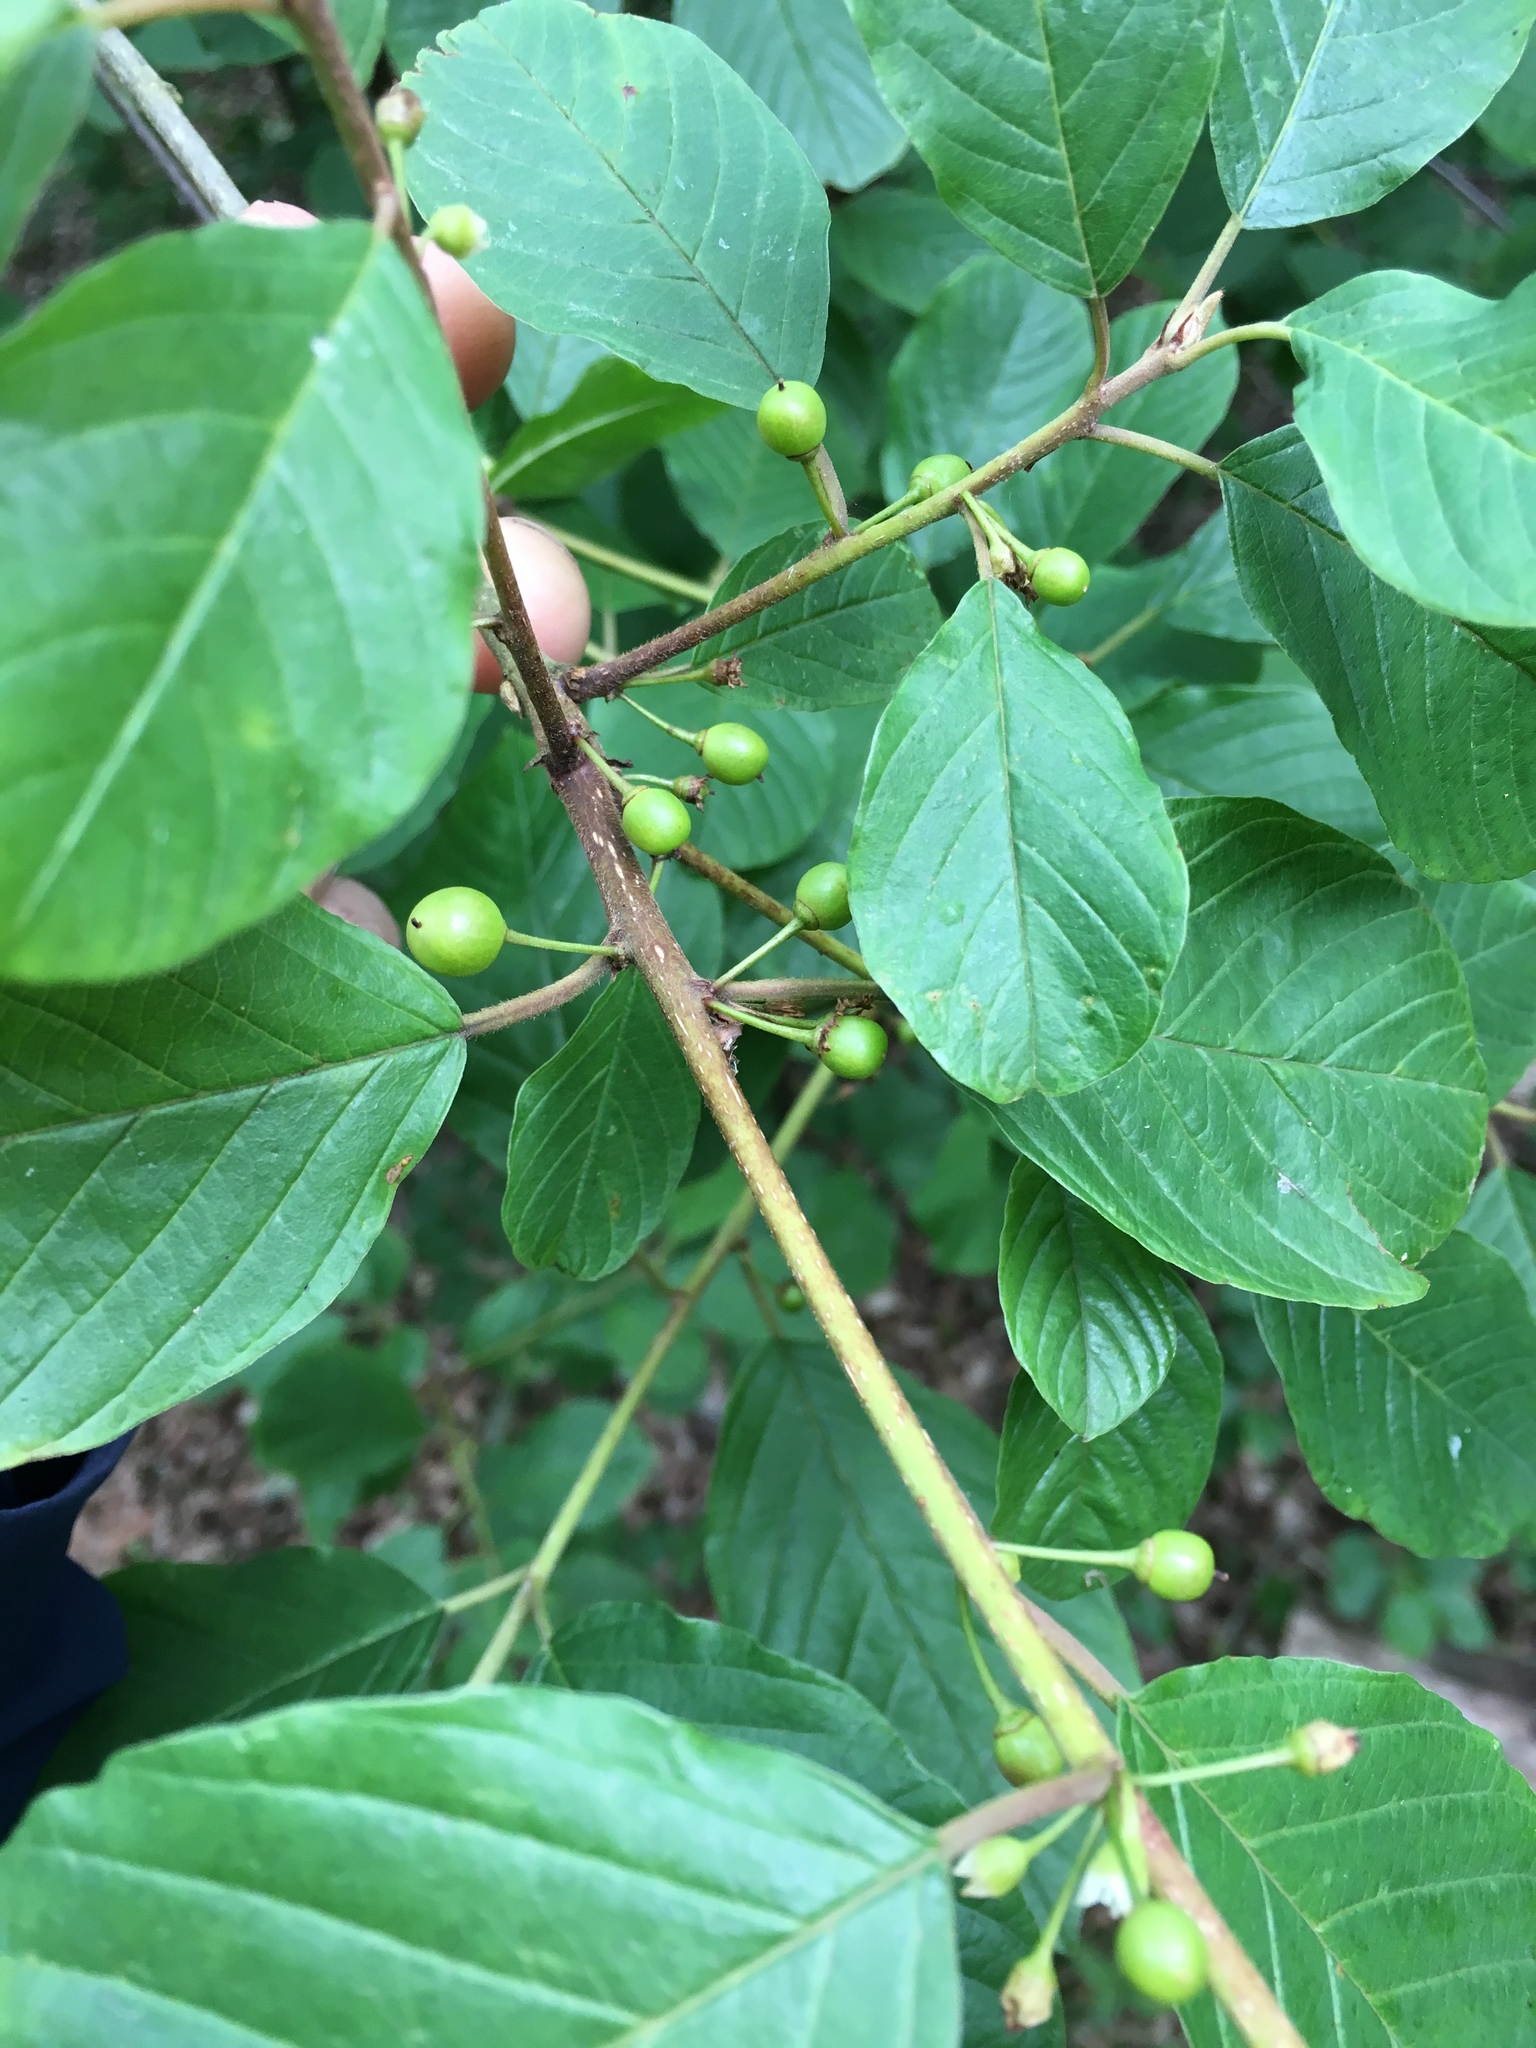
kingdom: Plantae
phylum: Tracheophyta
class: Magnoliopsida
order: Rosales
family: Rhamnaceae
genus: Frangula
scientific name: Frangula alnus
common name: Alder buckthorn
